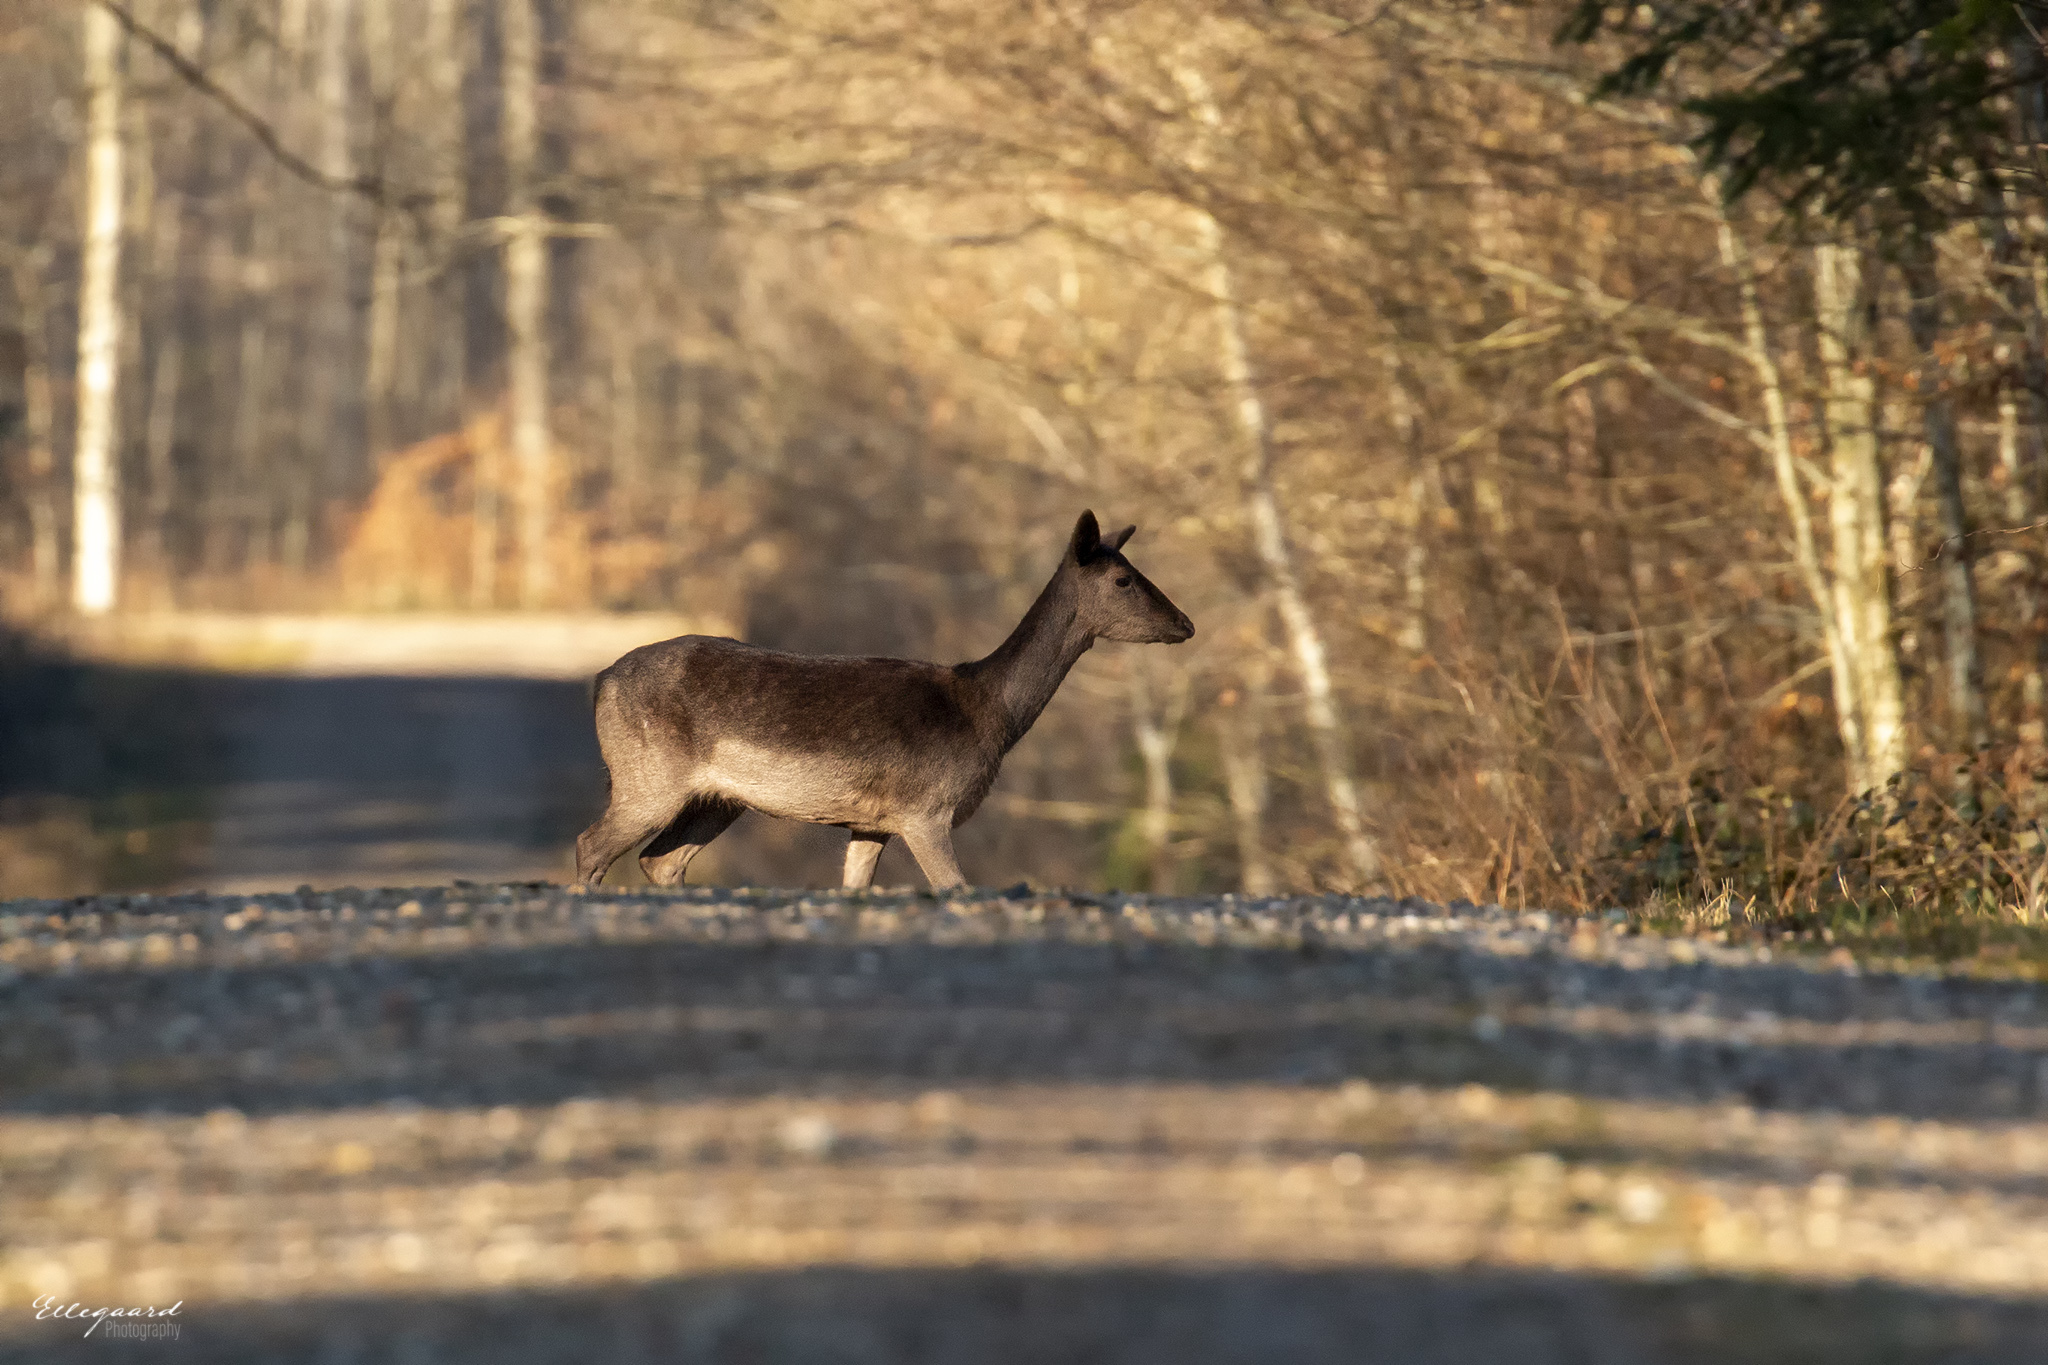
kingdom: Animalia
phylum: Chordata
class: Mammalia
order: Artiodactyla
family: Cervidae
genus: Dama
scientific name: Dama dama
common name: Fallow deer
